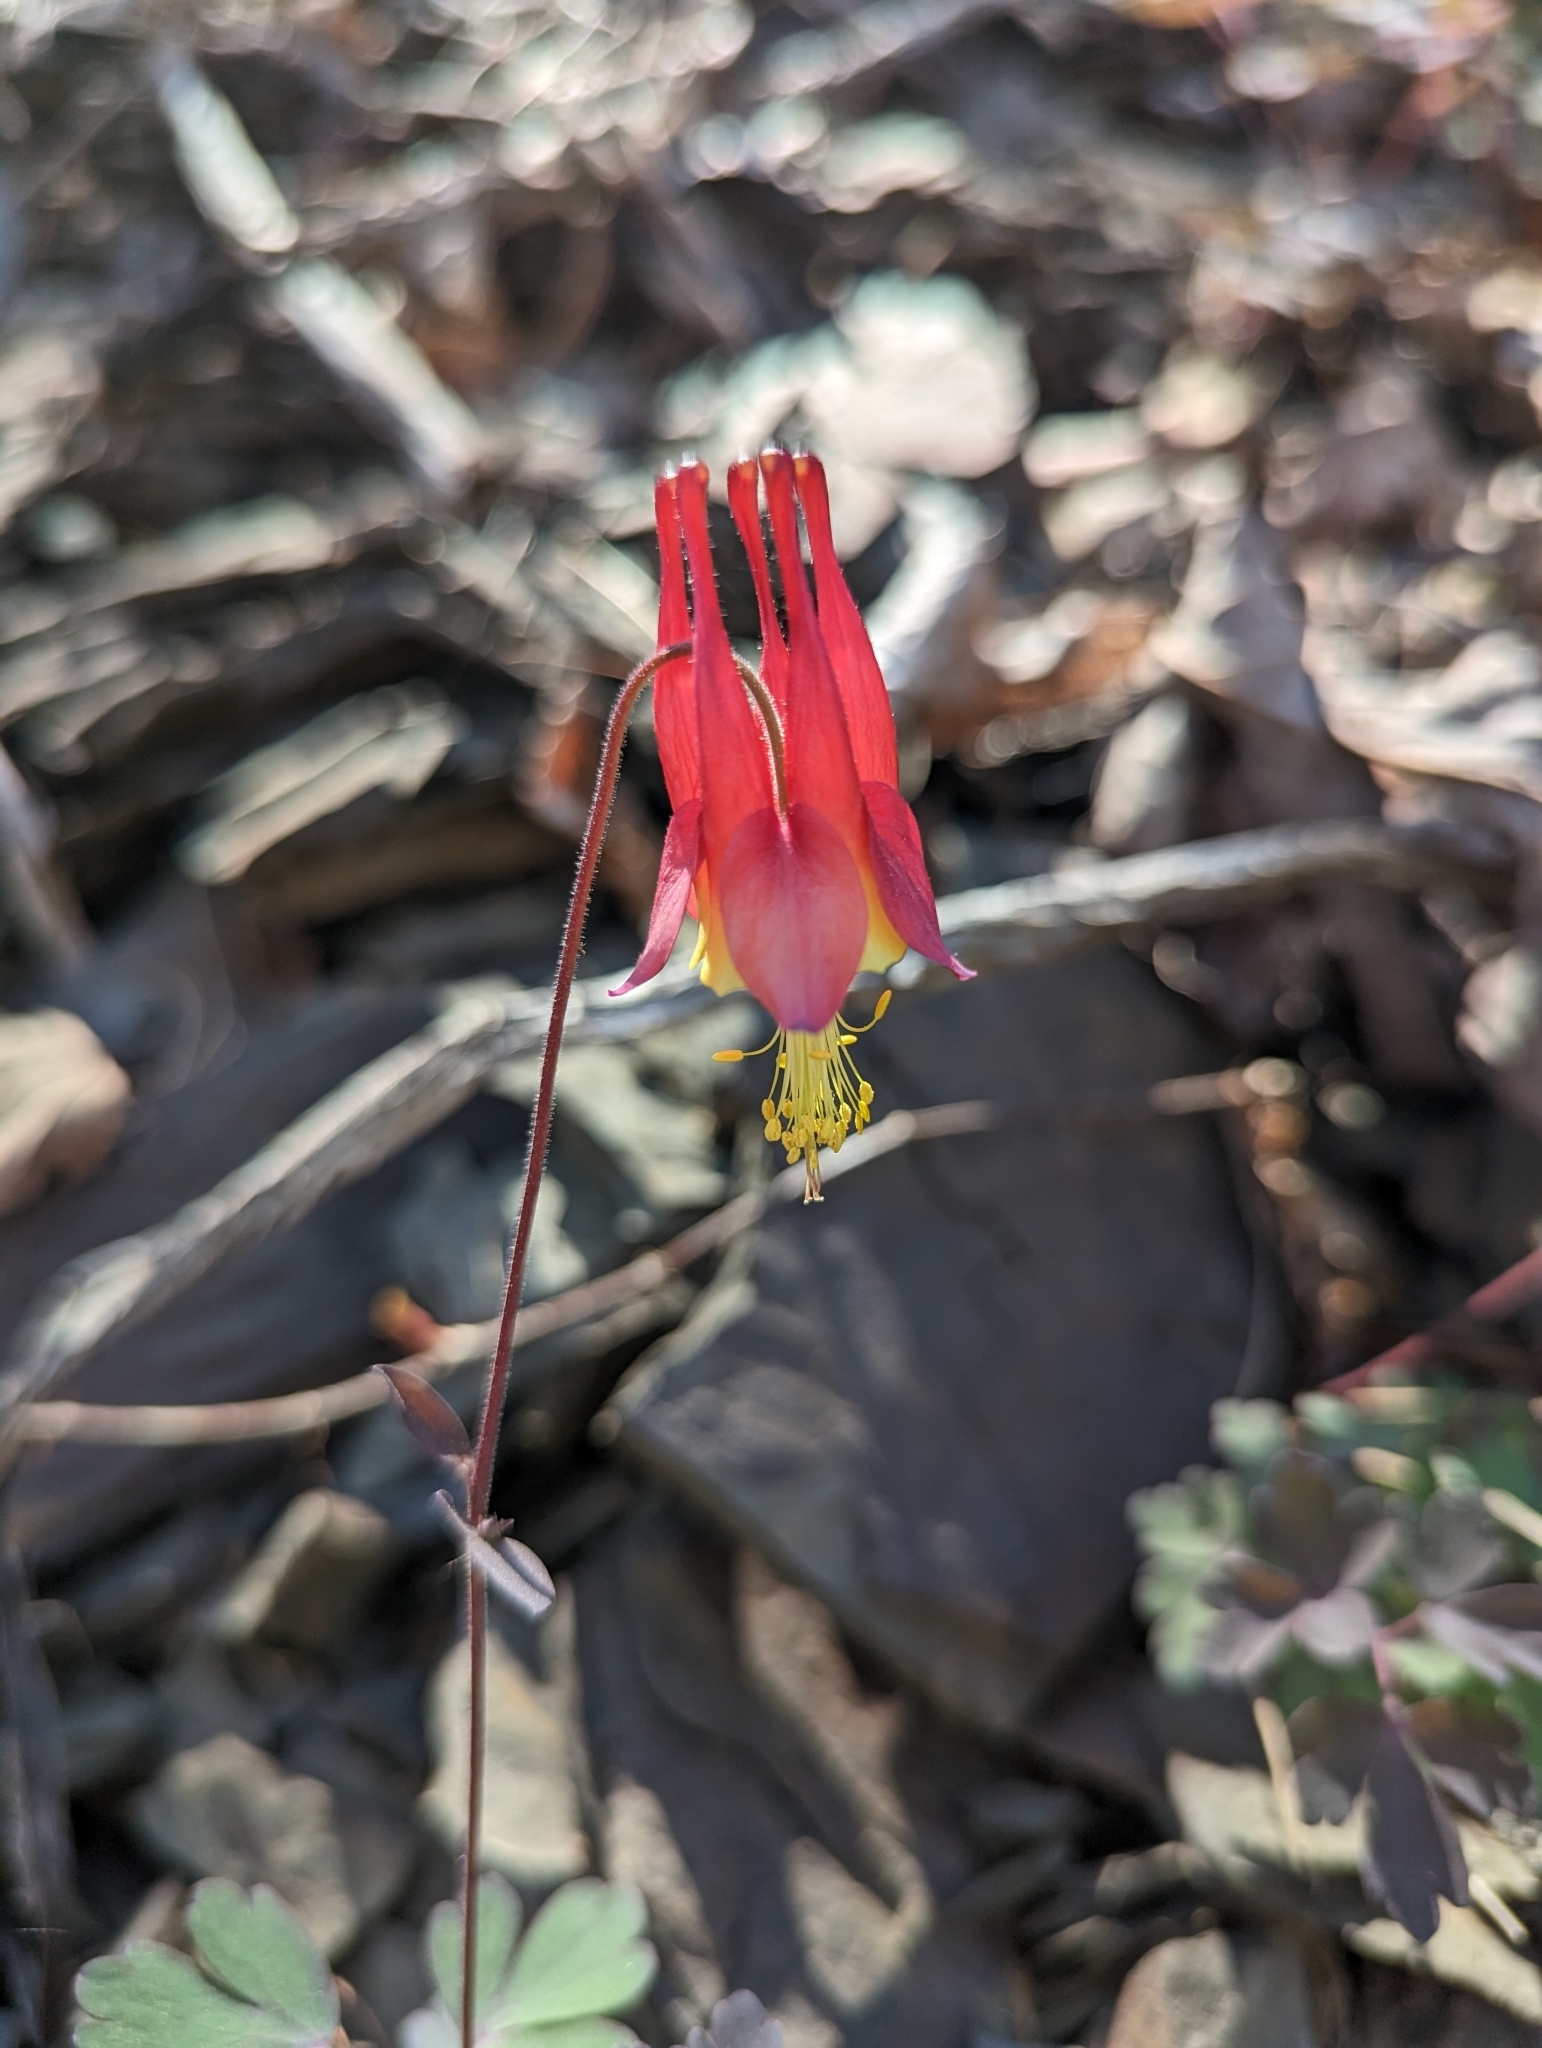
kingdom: Plantae
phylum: Tracheophyta
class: Magnoliopsida
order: Ranunculales
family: Ranunculaceae
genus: Aquilegia
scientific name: Aquilegia canadensis
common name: American columbine
